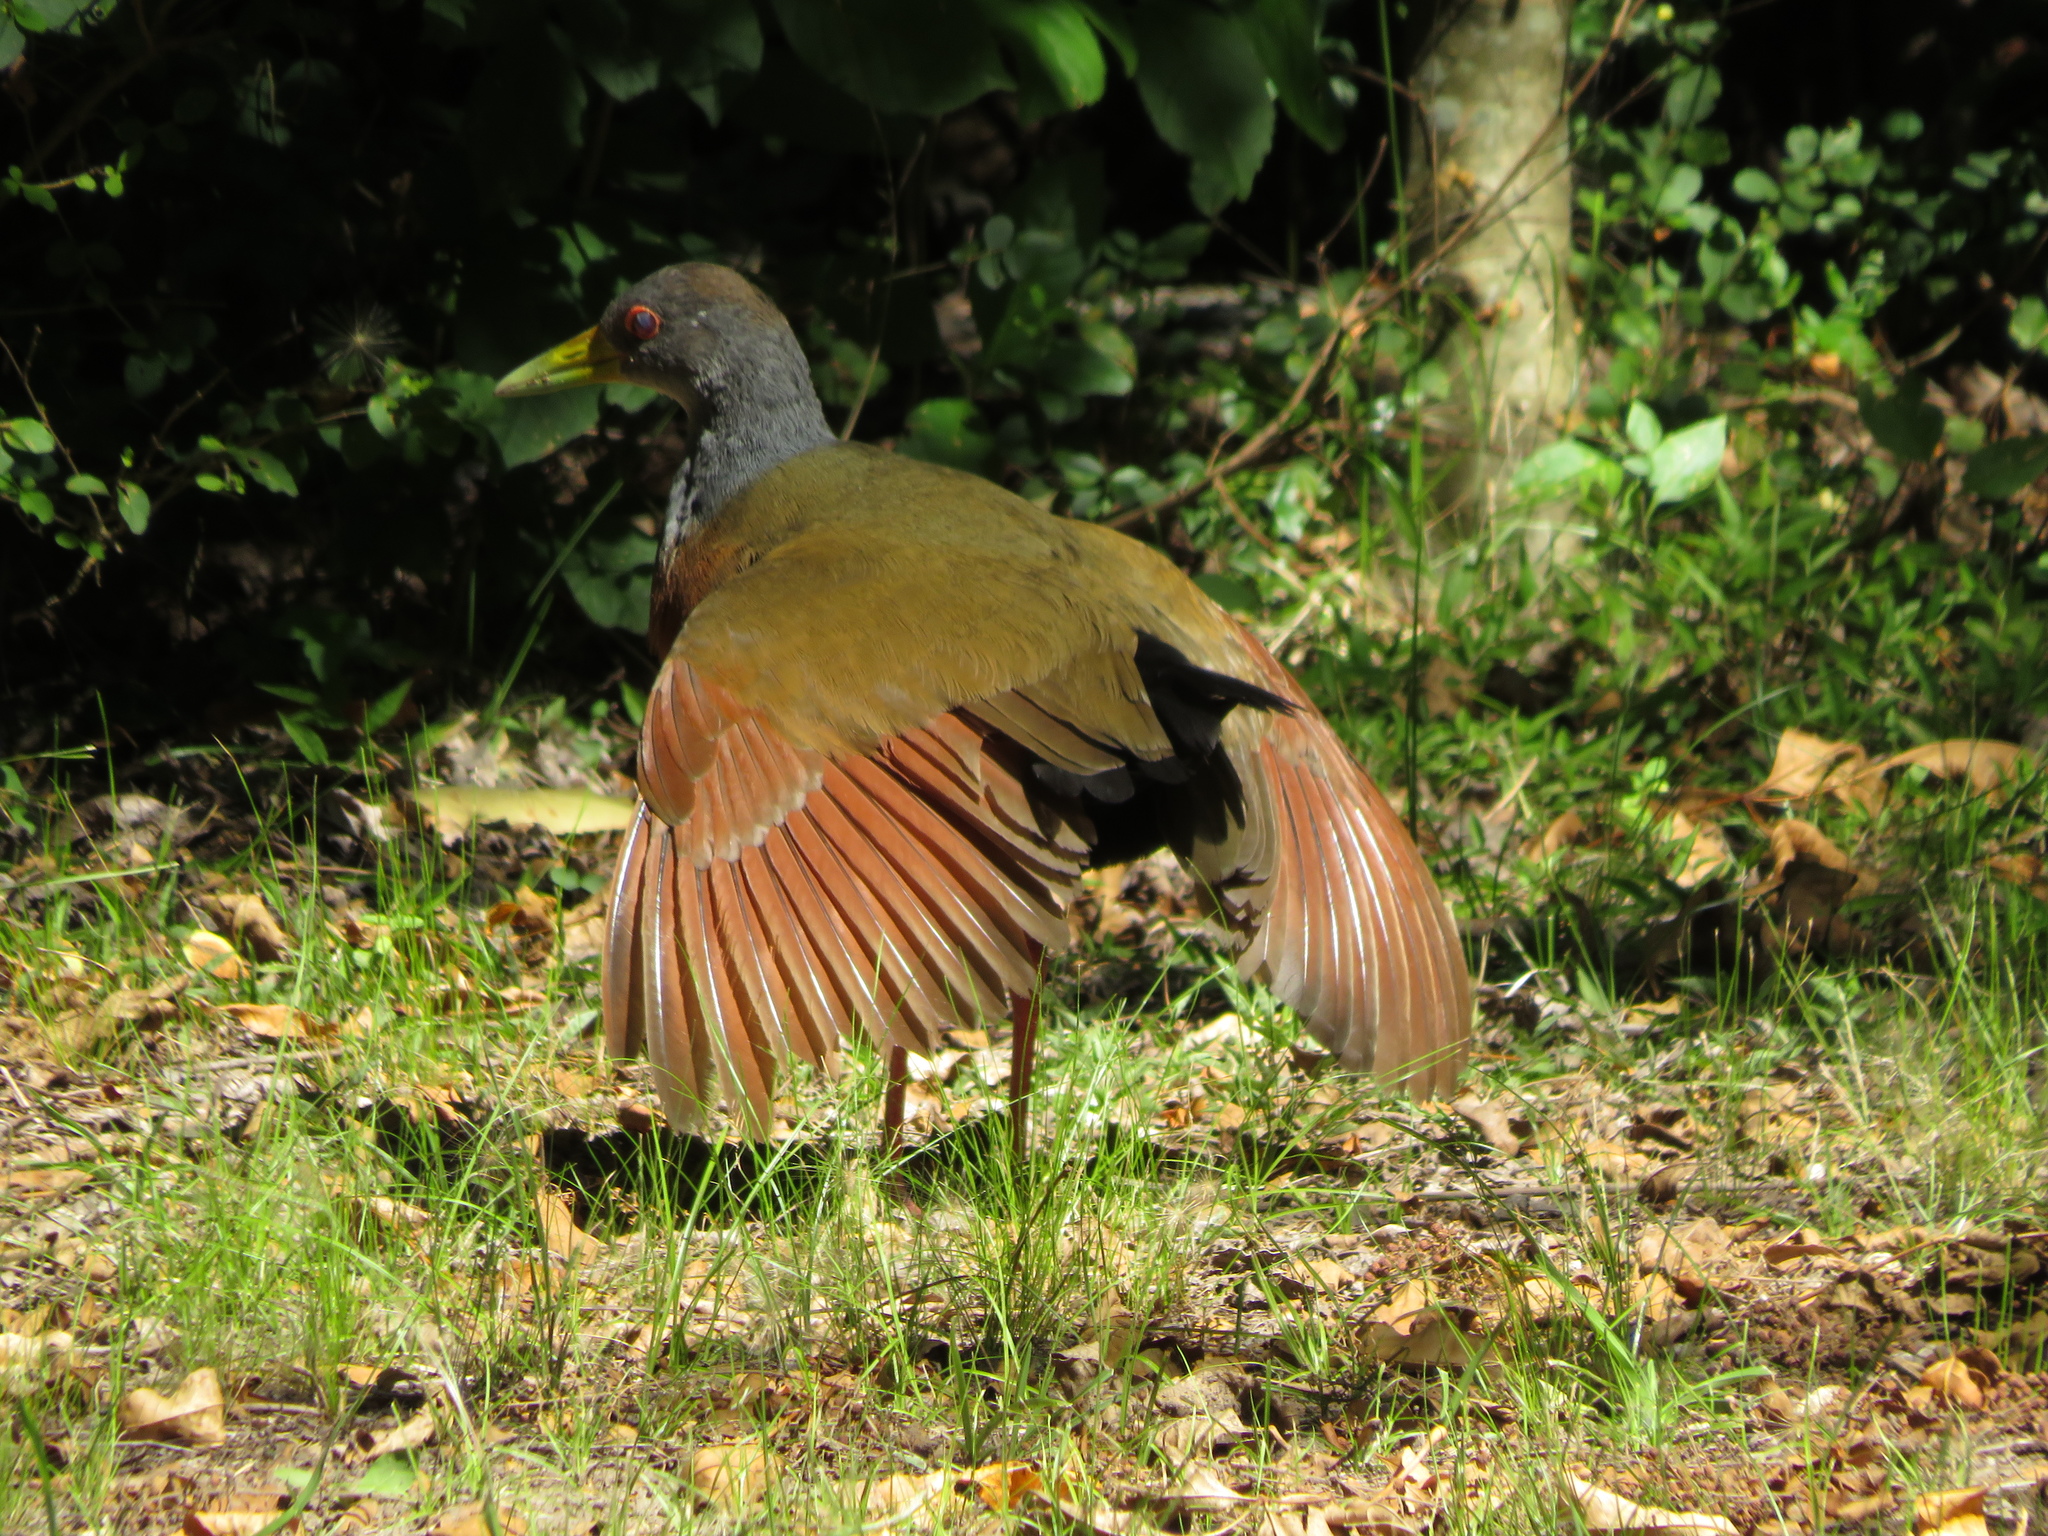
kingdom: Animalia
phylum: Chordata
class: Aves
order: Gruiformes
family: Rallidae
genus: Aramides
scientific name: Aramides cajanea
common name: Gray-necked wood-rail
